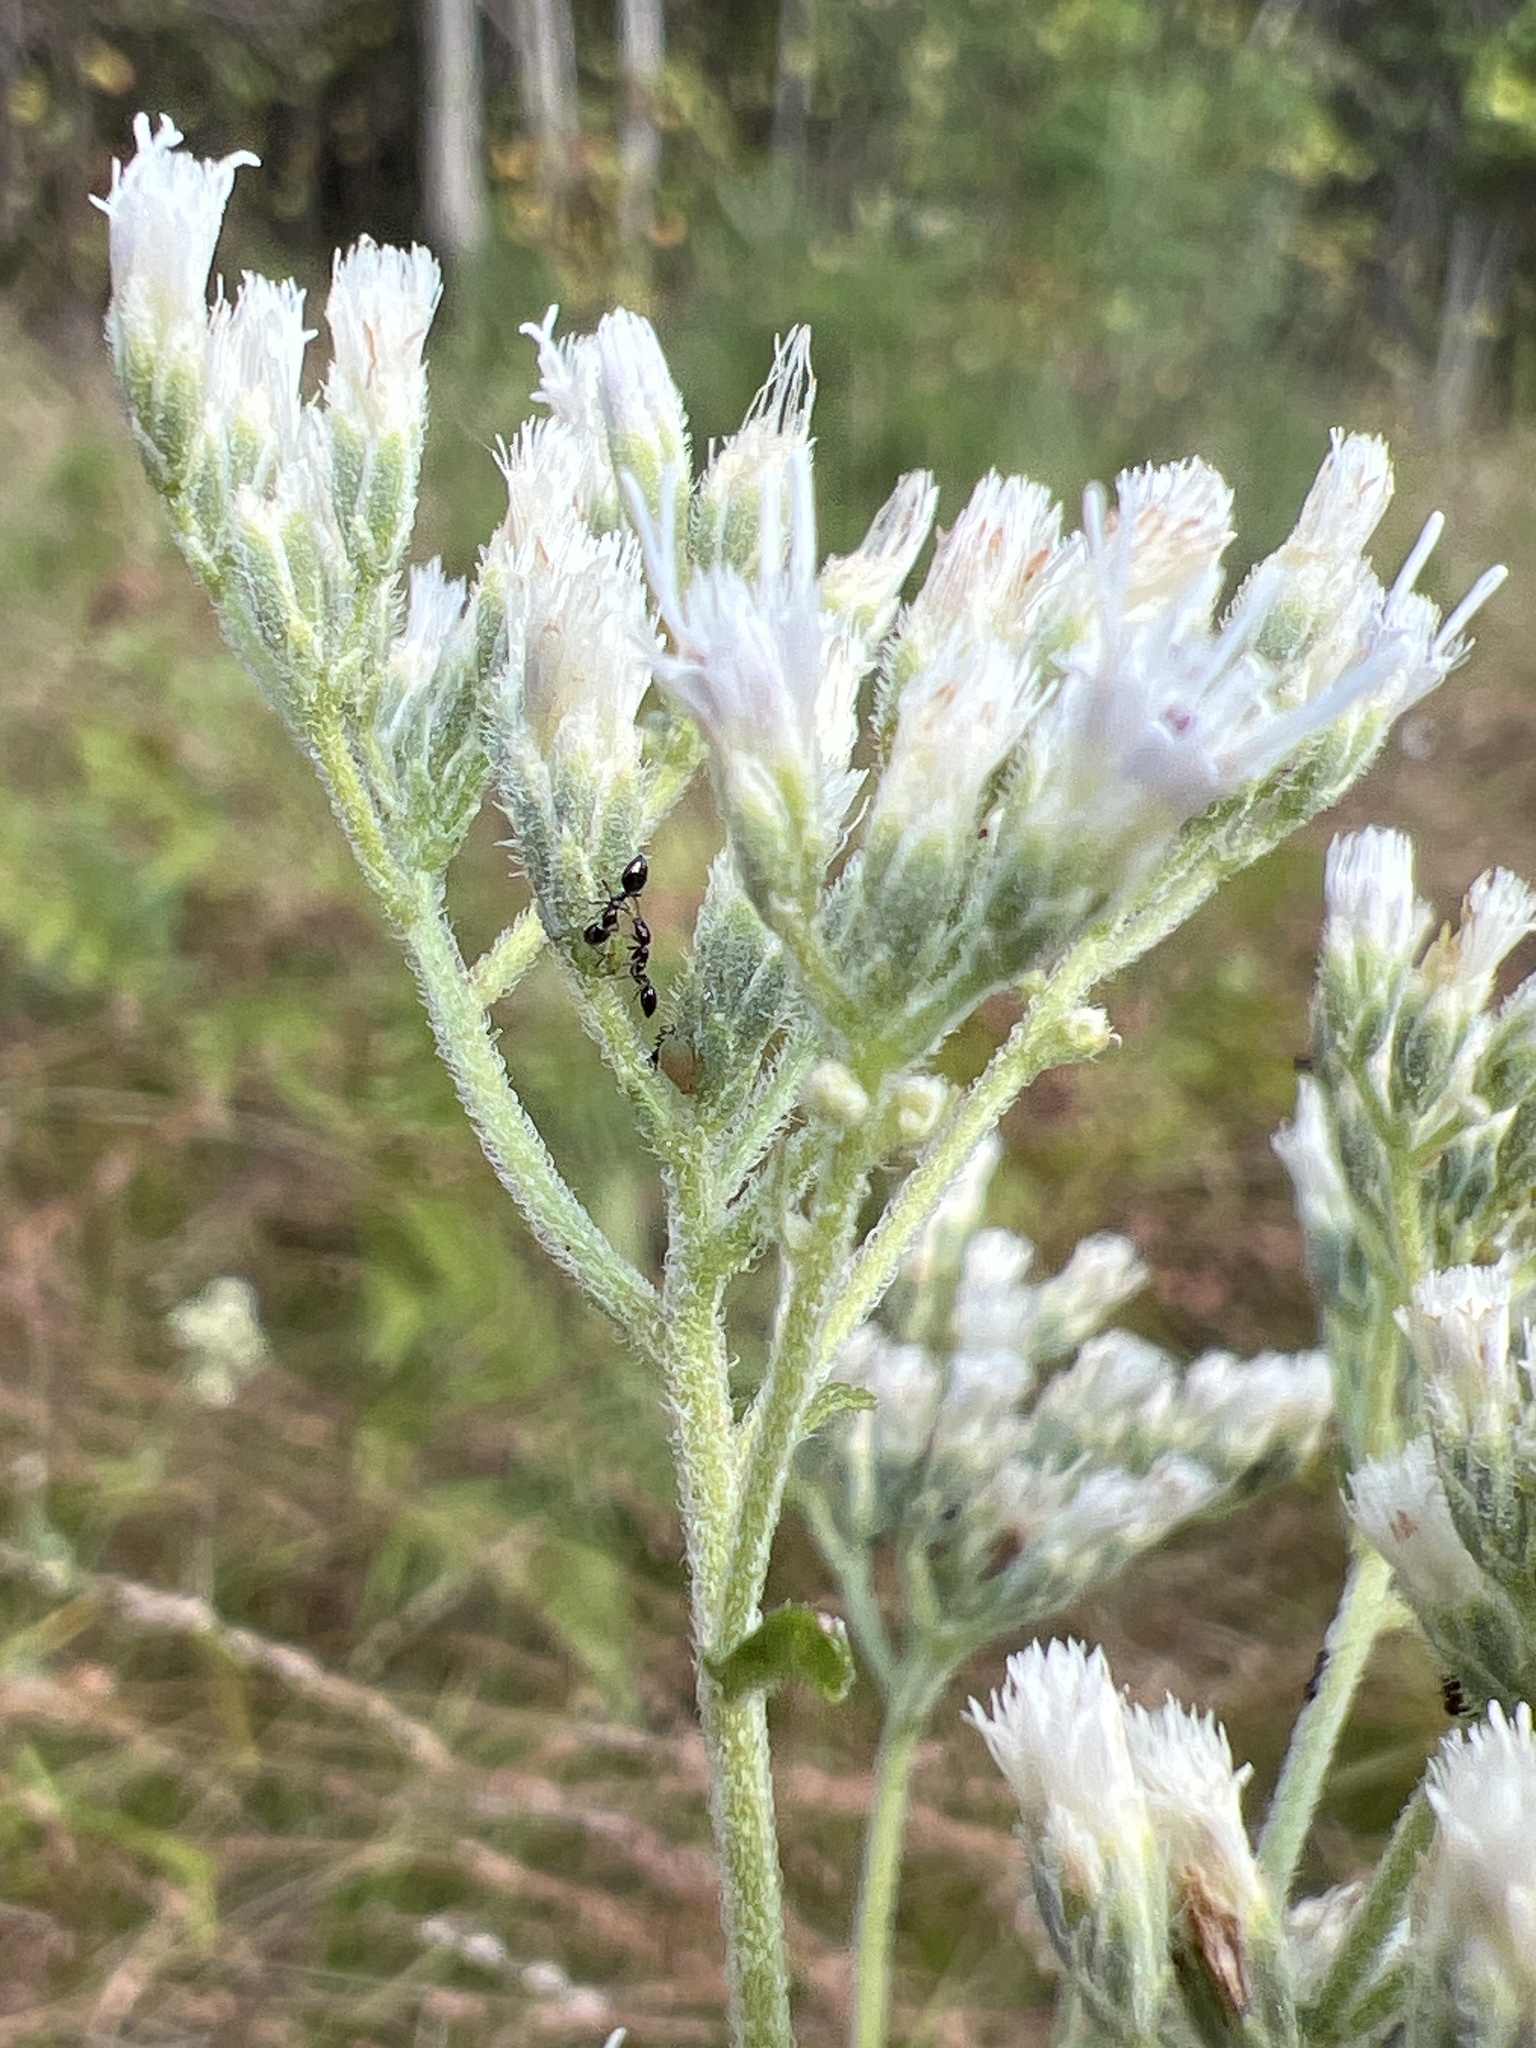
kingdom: Plantae
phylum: Tracheophyta
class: Magnoliopsida
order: Asterales
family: Asteraceae
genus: Eupatorium
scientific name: Eupatorium pilosum
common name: Rough boneset
